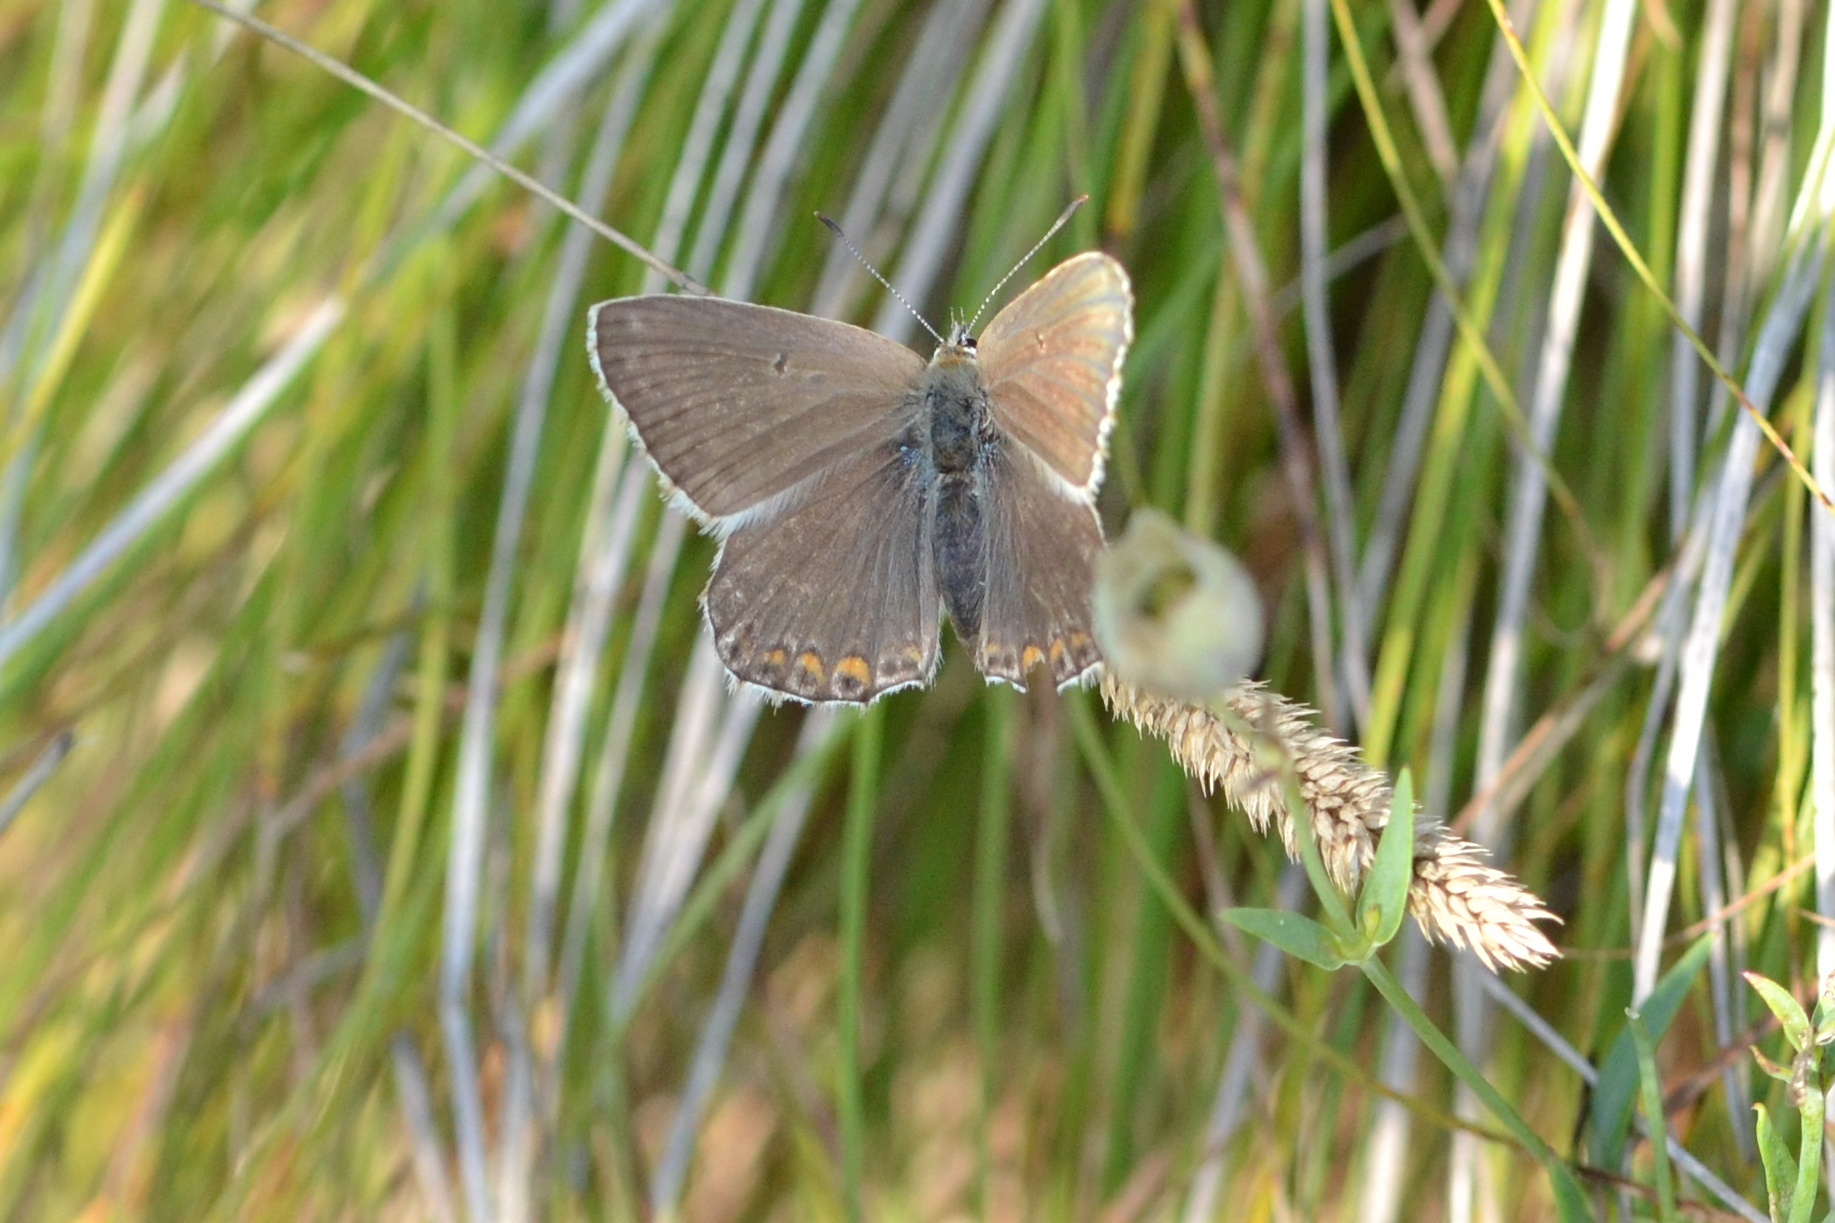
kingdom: Animalia
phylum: Arthropoda
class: Insecta
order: Lepidoptera
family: Lycaenidae
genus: Lysandra
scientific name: Lysandra coridon
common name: Chalkhill blue
